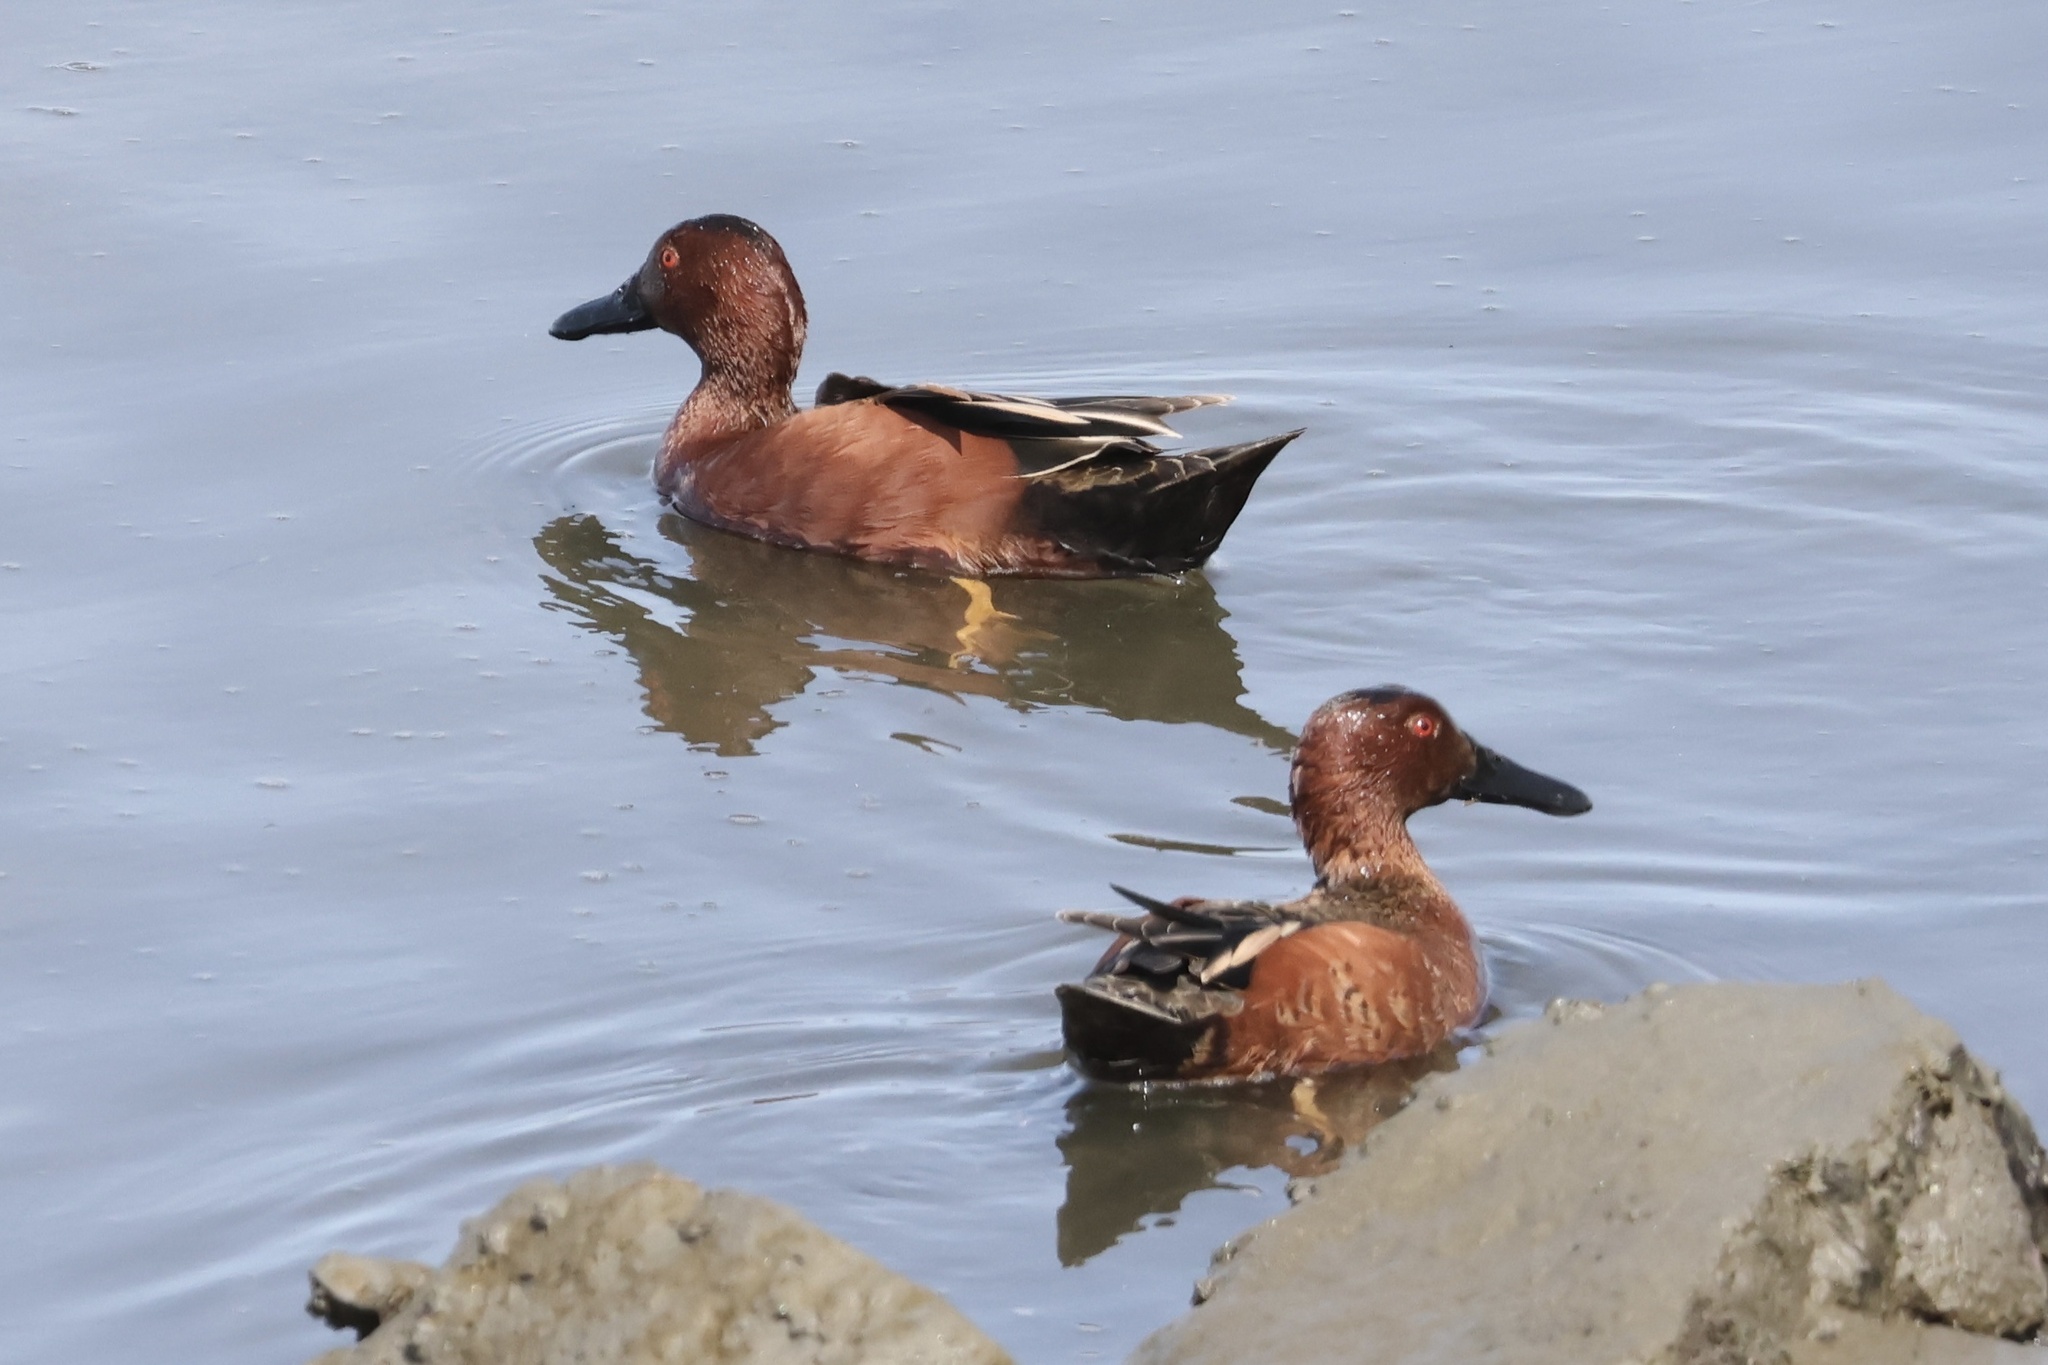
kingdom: Animalia
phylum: Chordata
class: Aves
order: Anseriformes
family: Anatidae
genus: Spatula
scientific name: Spatula cyanoptera
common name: Cinnamon teal
